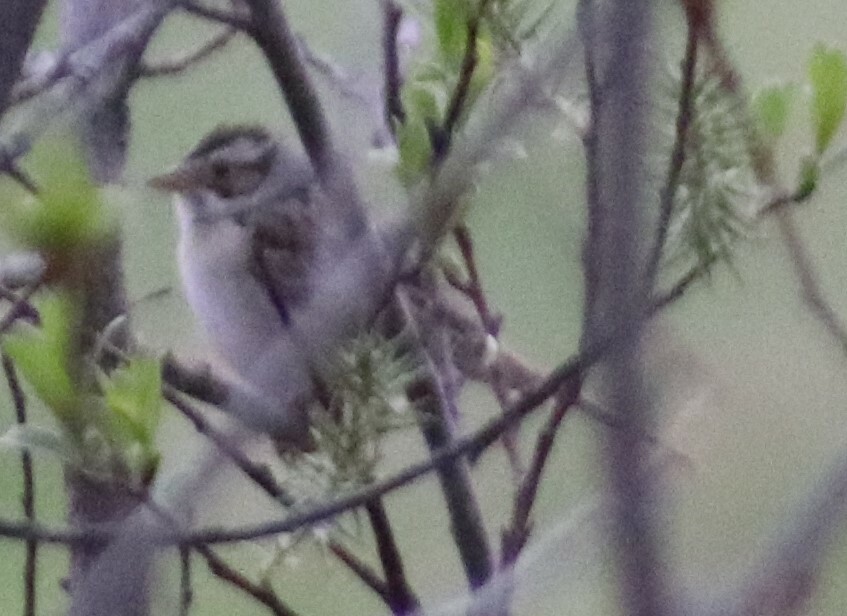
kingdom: Animalia
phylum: Chordata
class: Aves
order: Passeriformes
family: Passerellidae
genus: Spizella
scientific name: Spizella pallida
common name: Clay-colored sparrow
